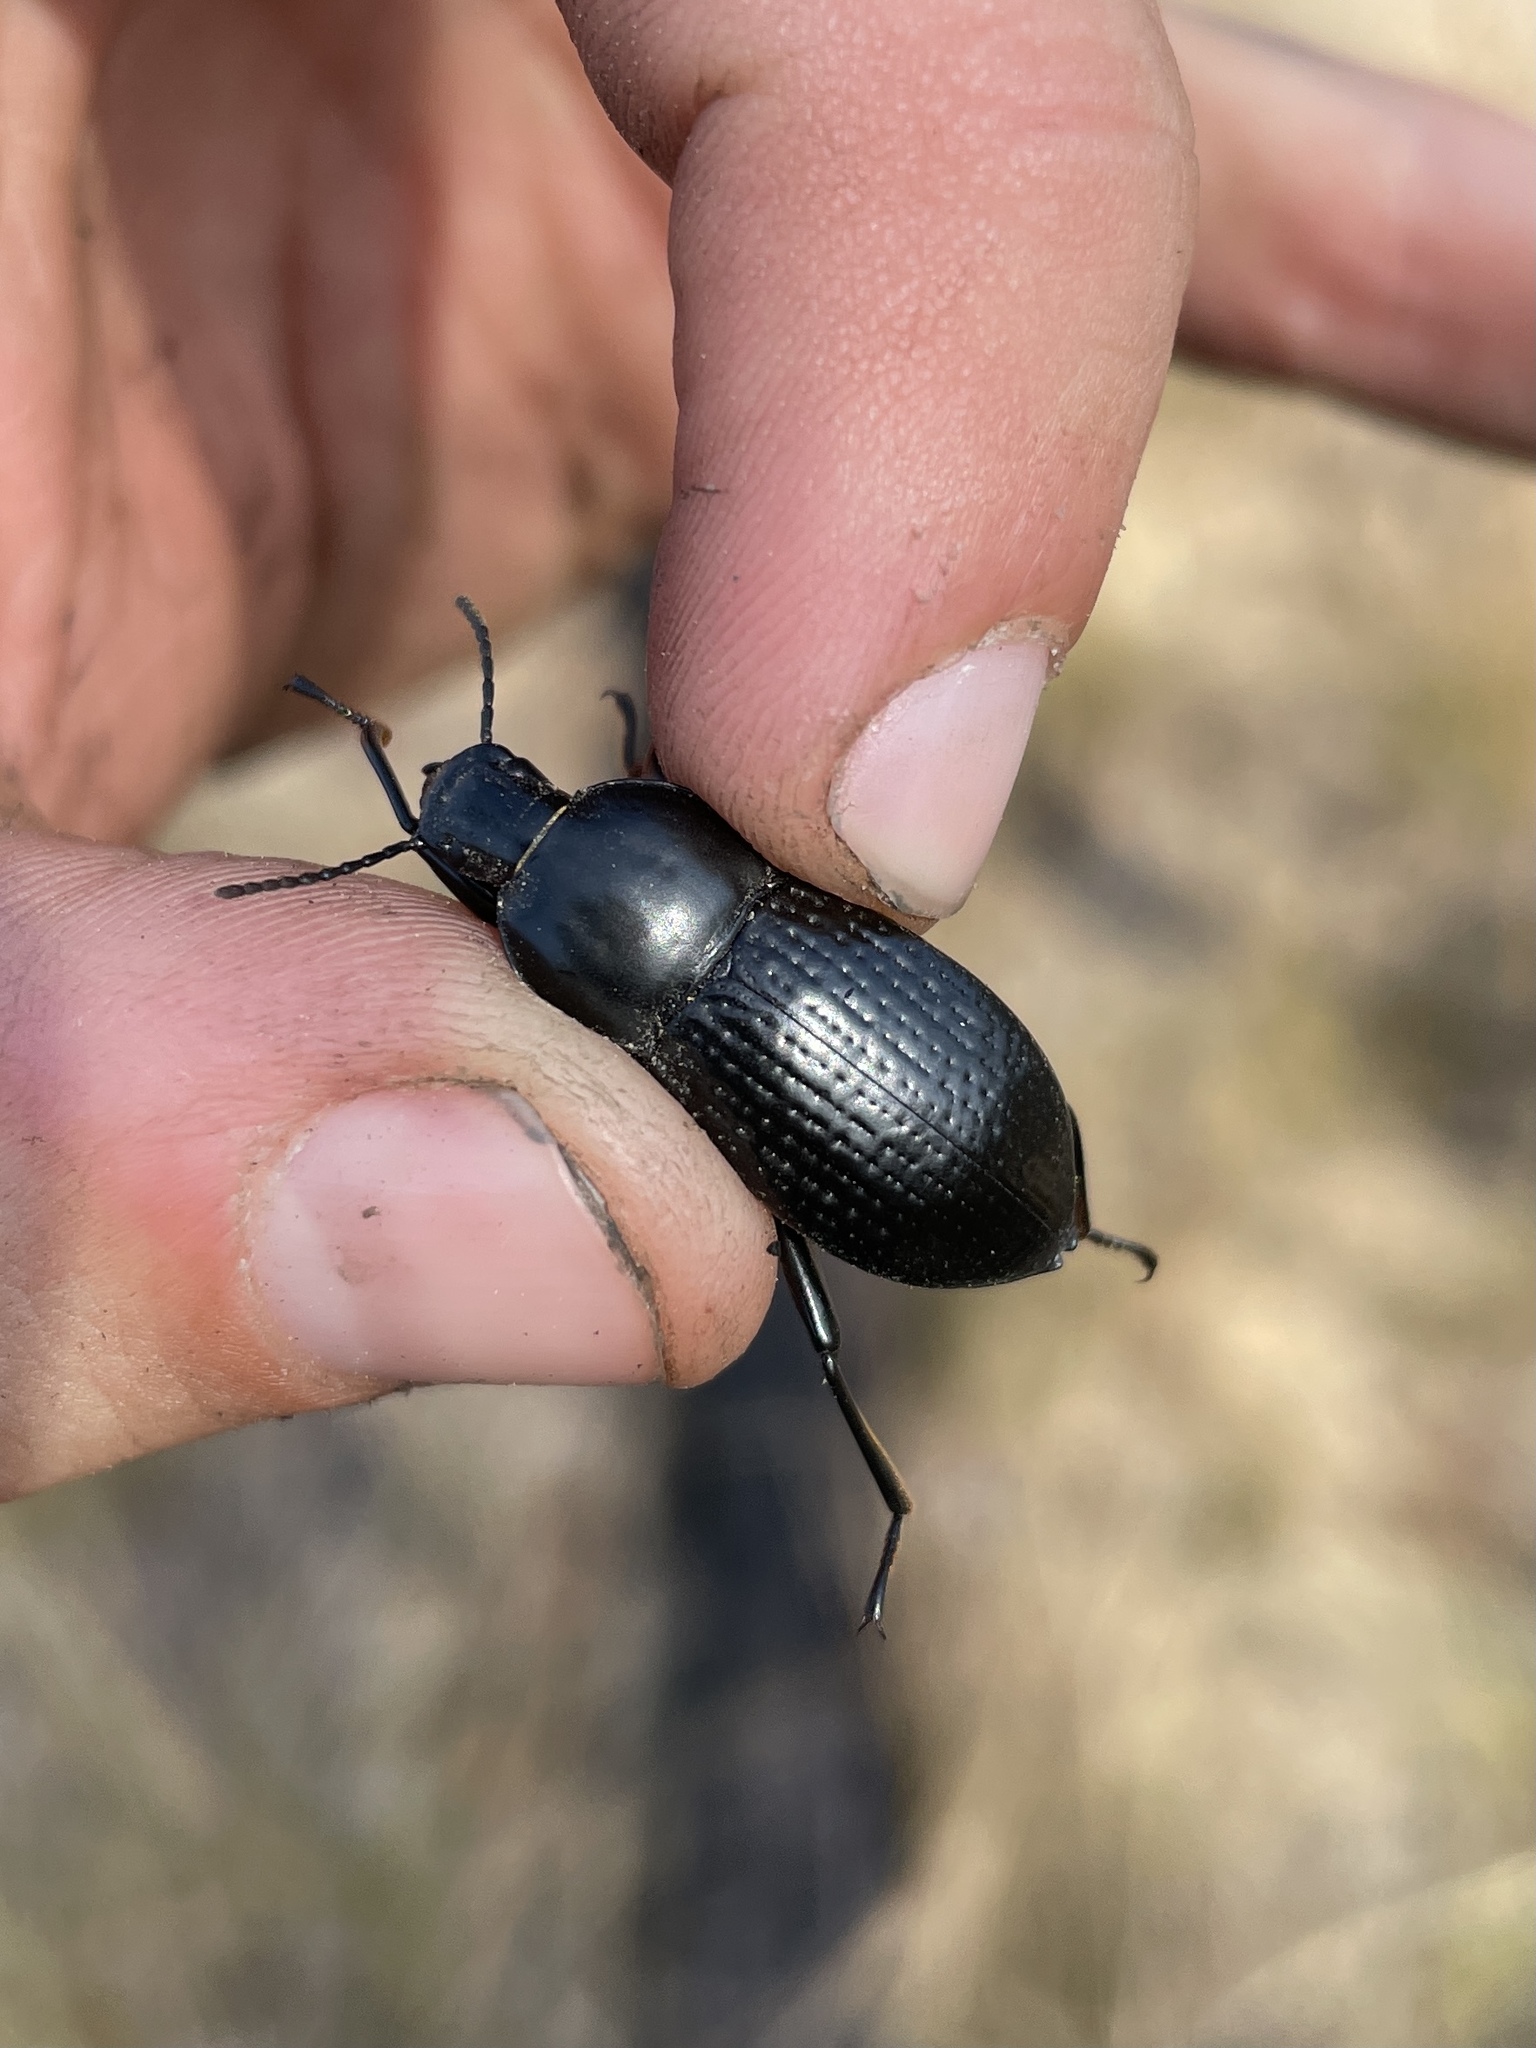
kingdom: Animalia
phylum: Arthropoda
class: Insecta
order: Coleoptera
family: Tenebrionidae
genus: Polopinus
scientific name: Polopinus
